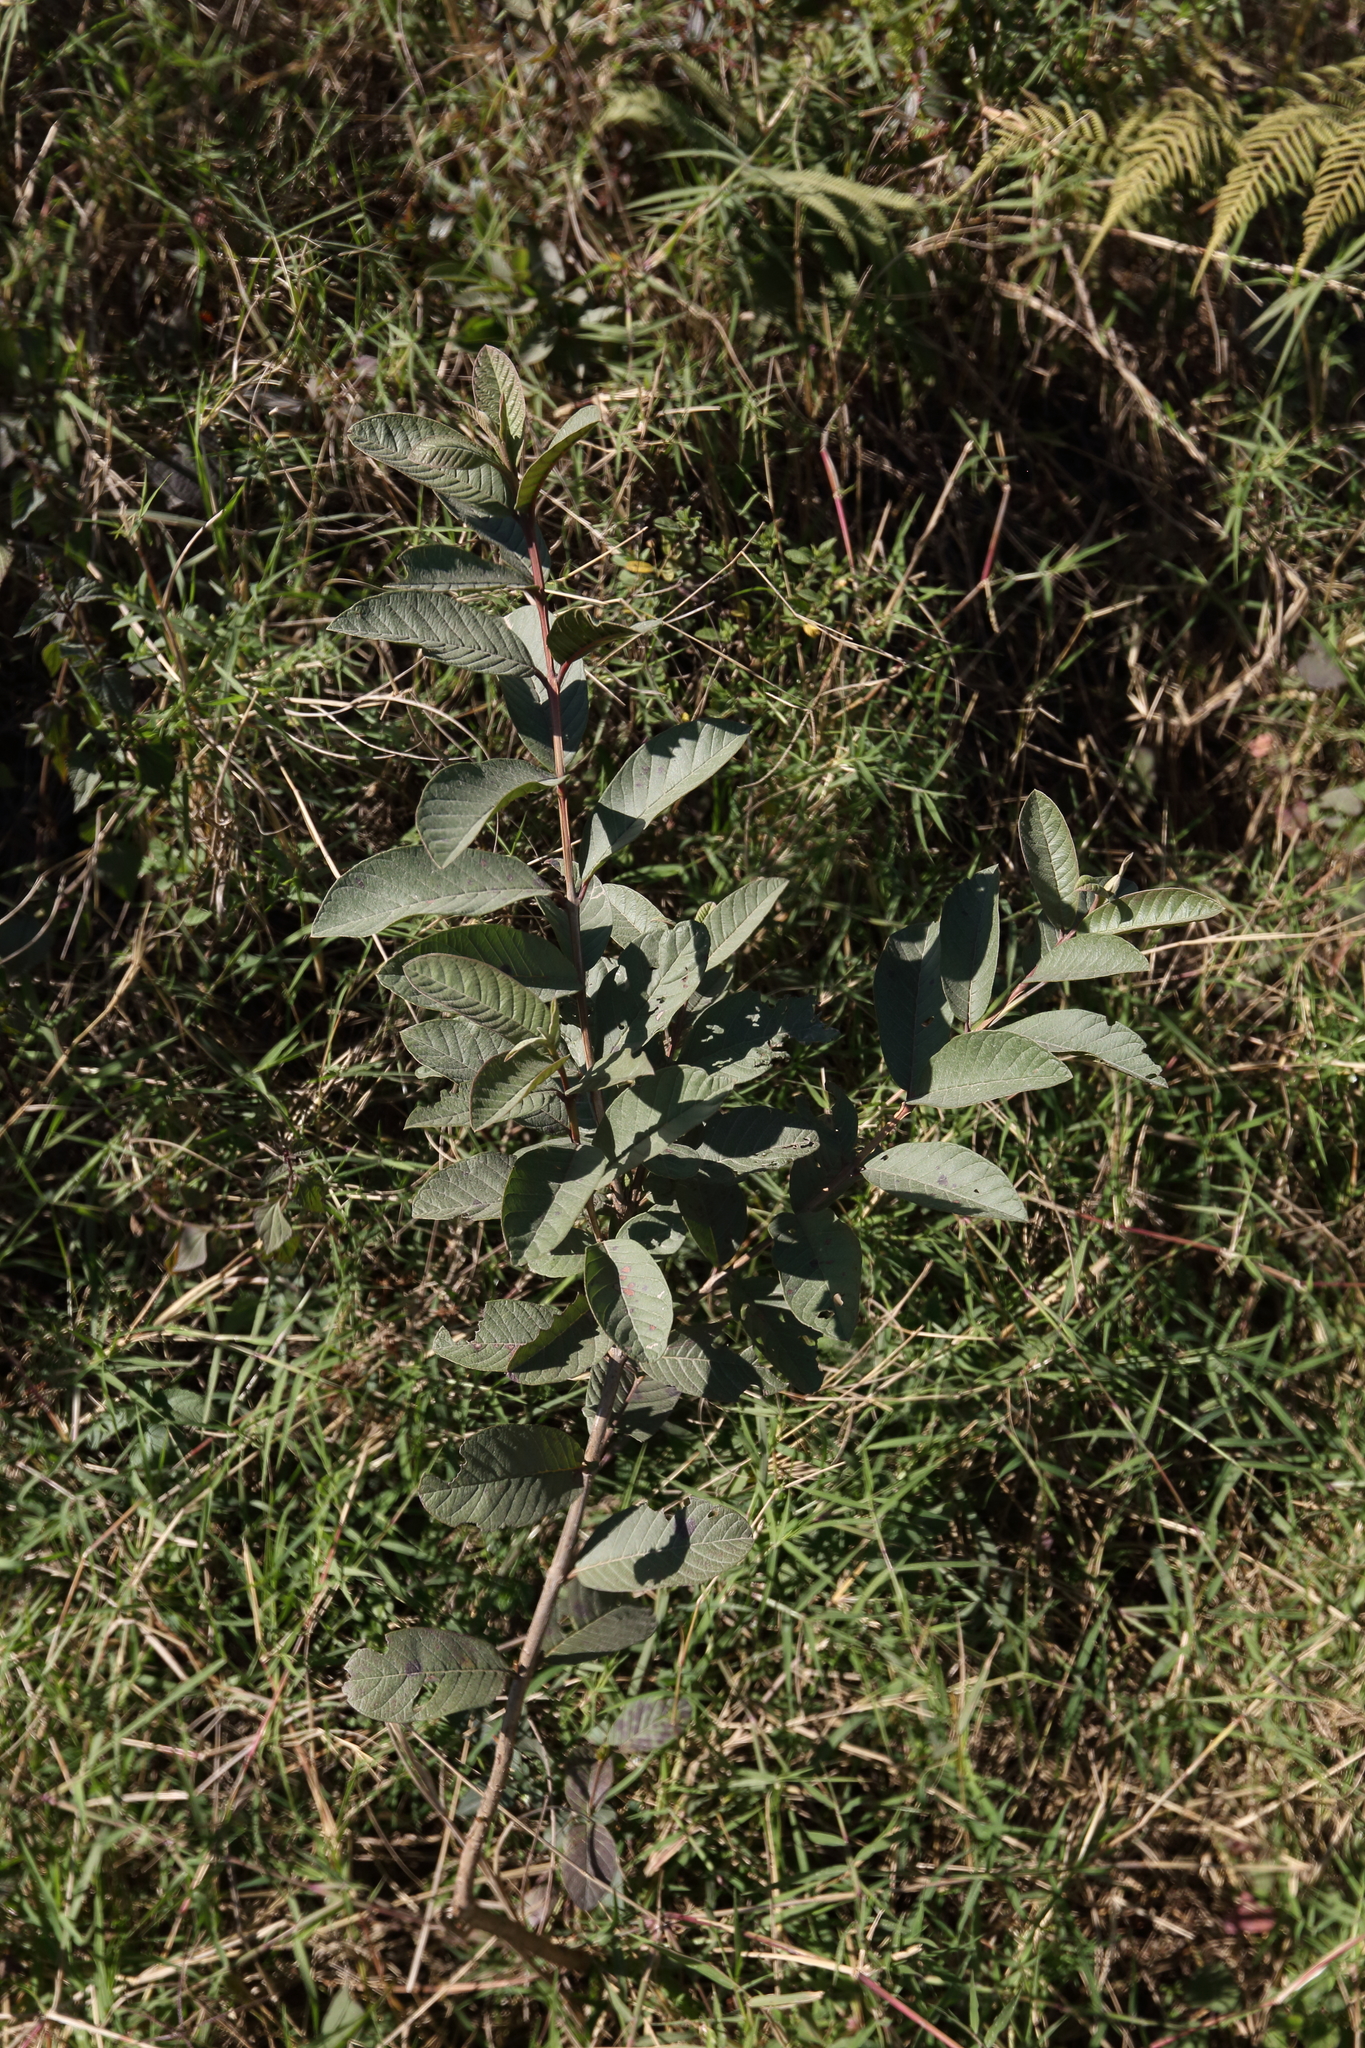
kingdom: Plantae
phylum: Tracheophyta
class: Magnoliopsida
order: Myrtales
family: Myrtaceae
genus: Psidium
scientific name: Psidium guajava
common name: Guava
